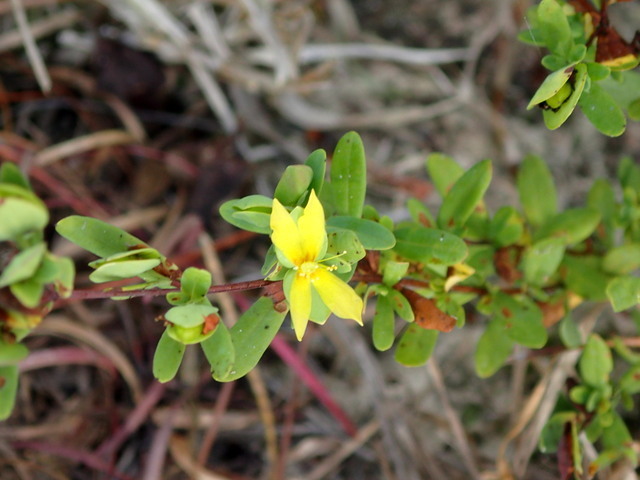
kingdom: Plantae
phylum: Tracheophyta
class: Magnoliopsida
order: Malpighiales
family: Hypericaceae
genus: Hypericum
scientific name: Hypericum hypericoides
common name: St. andrew's cross
